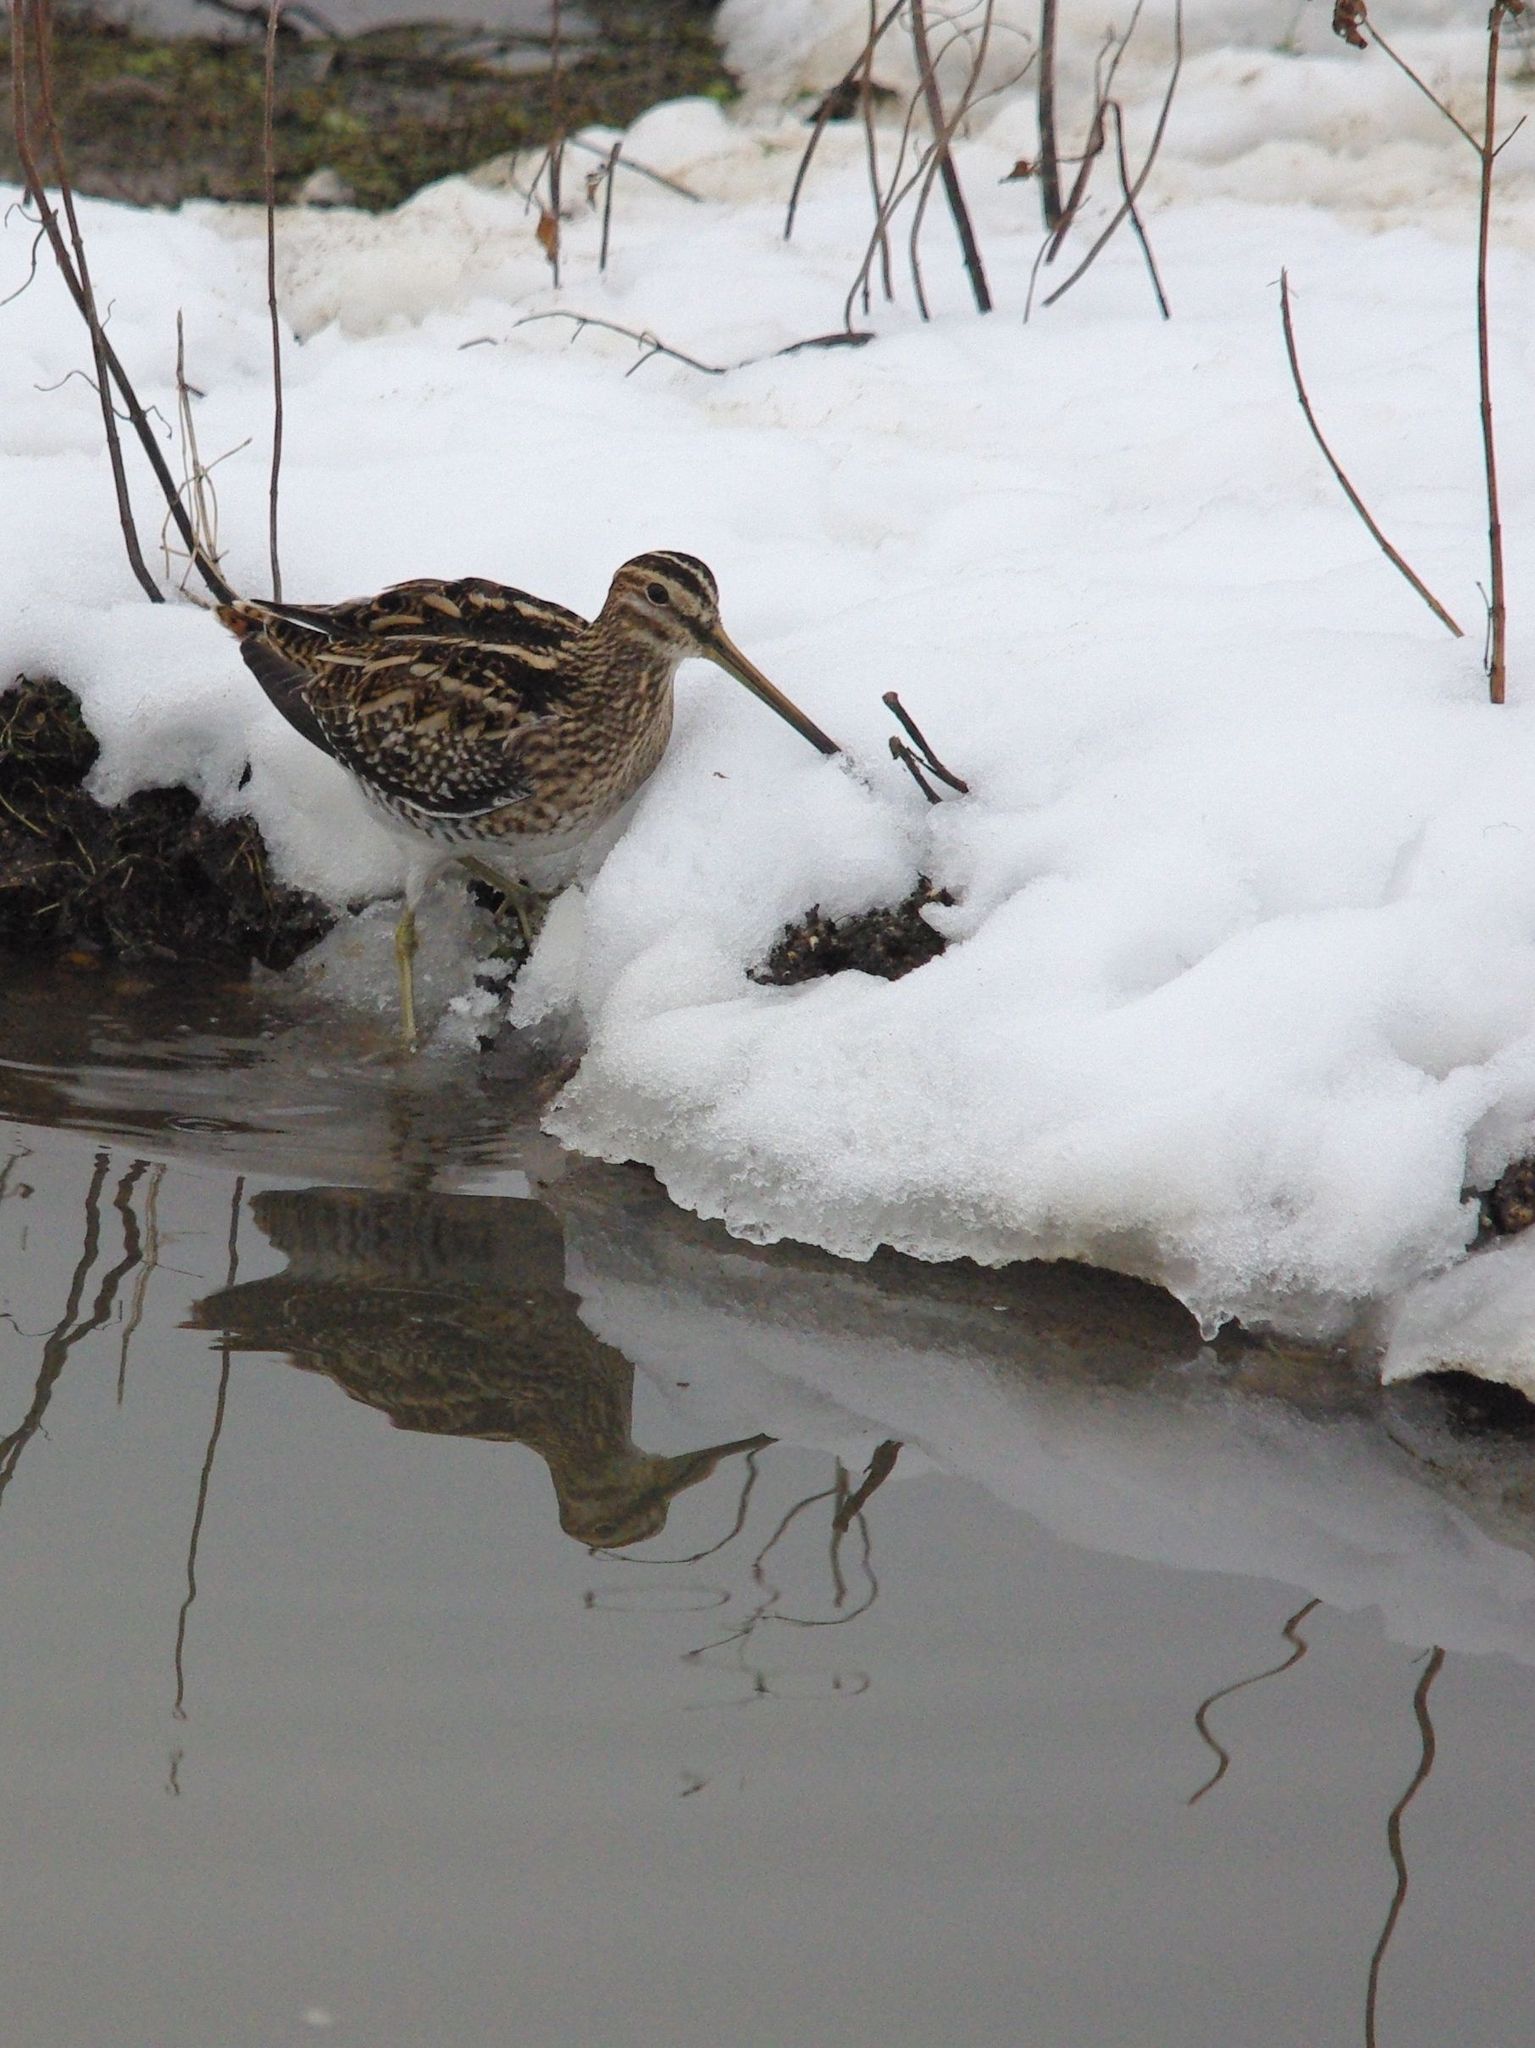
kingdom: Animalia
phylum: Chordata
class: Aves
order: Charadriiformes
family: Scolopacidae
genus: Gallinago
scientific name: Gallinago gallinago
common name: Common snipe
